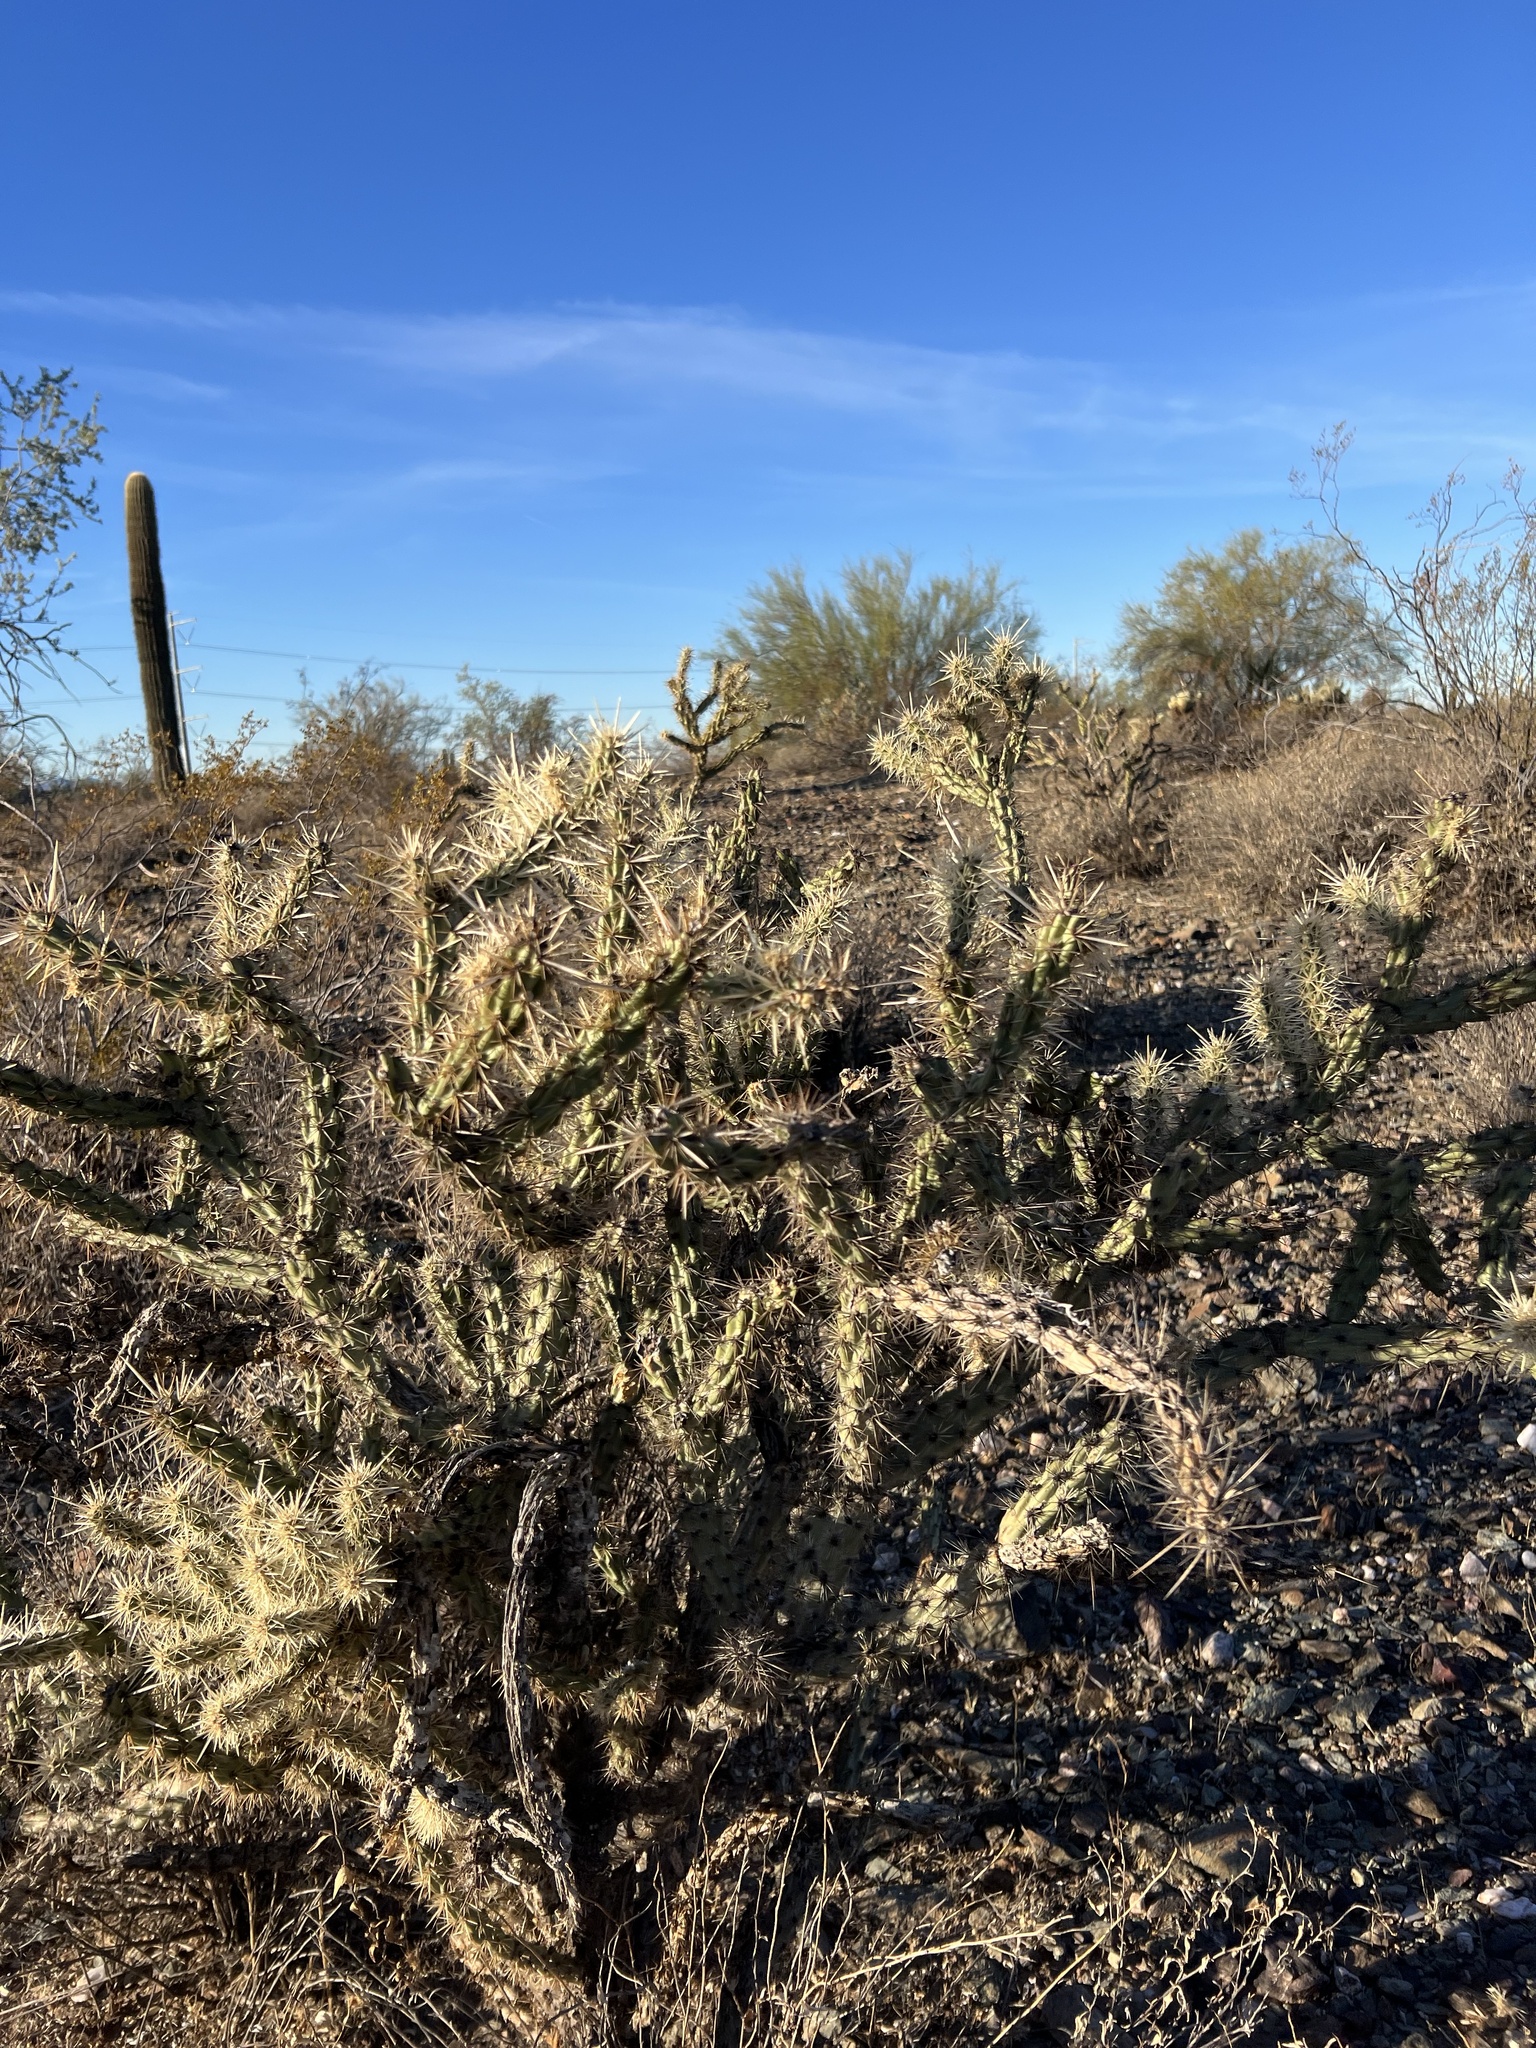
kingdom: Plantae
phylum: Tracheophyta
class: Magnoliopsida
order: Caryophyllales
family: Cactaceae
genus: Cylindropuntia
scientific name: Cylindropuntia acanthocarpa
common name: Buckhorn cholla
